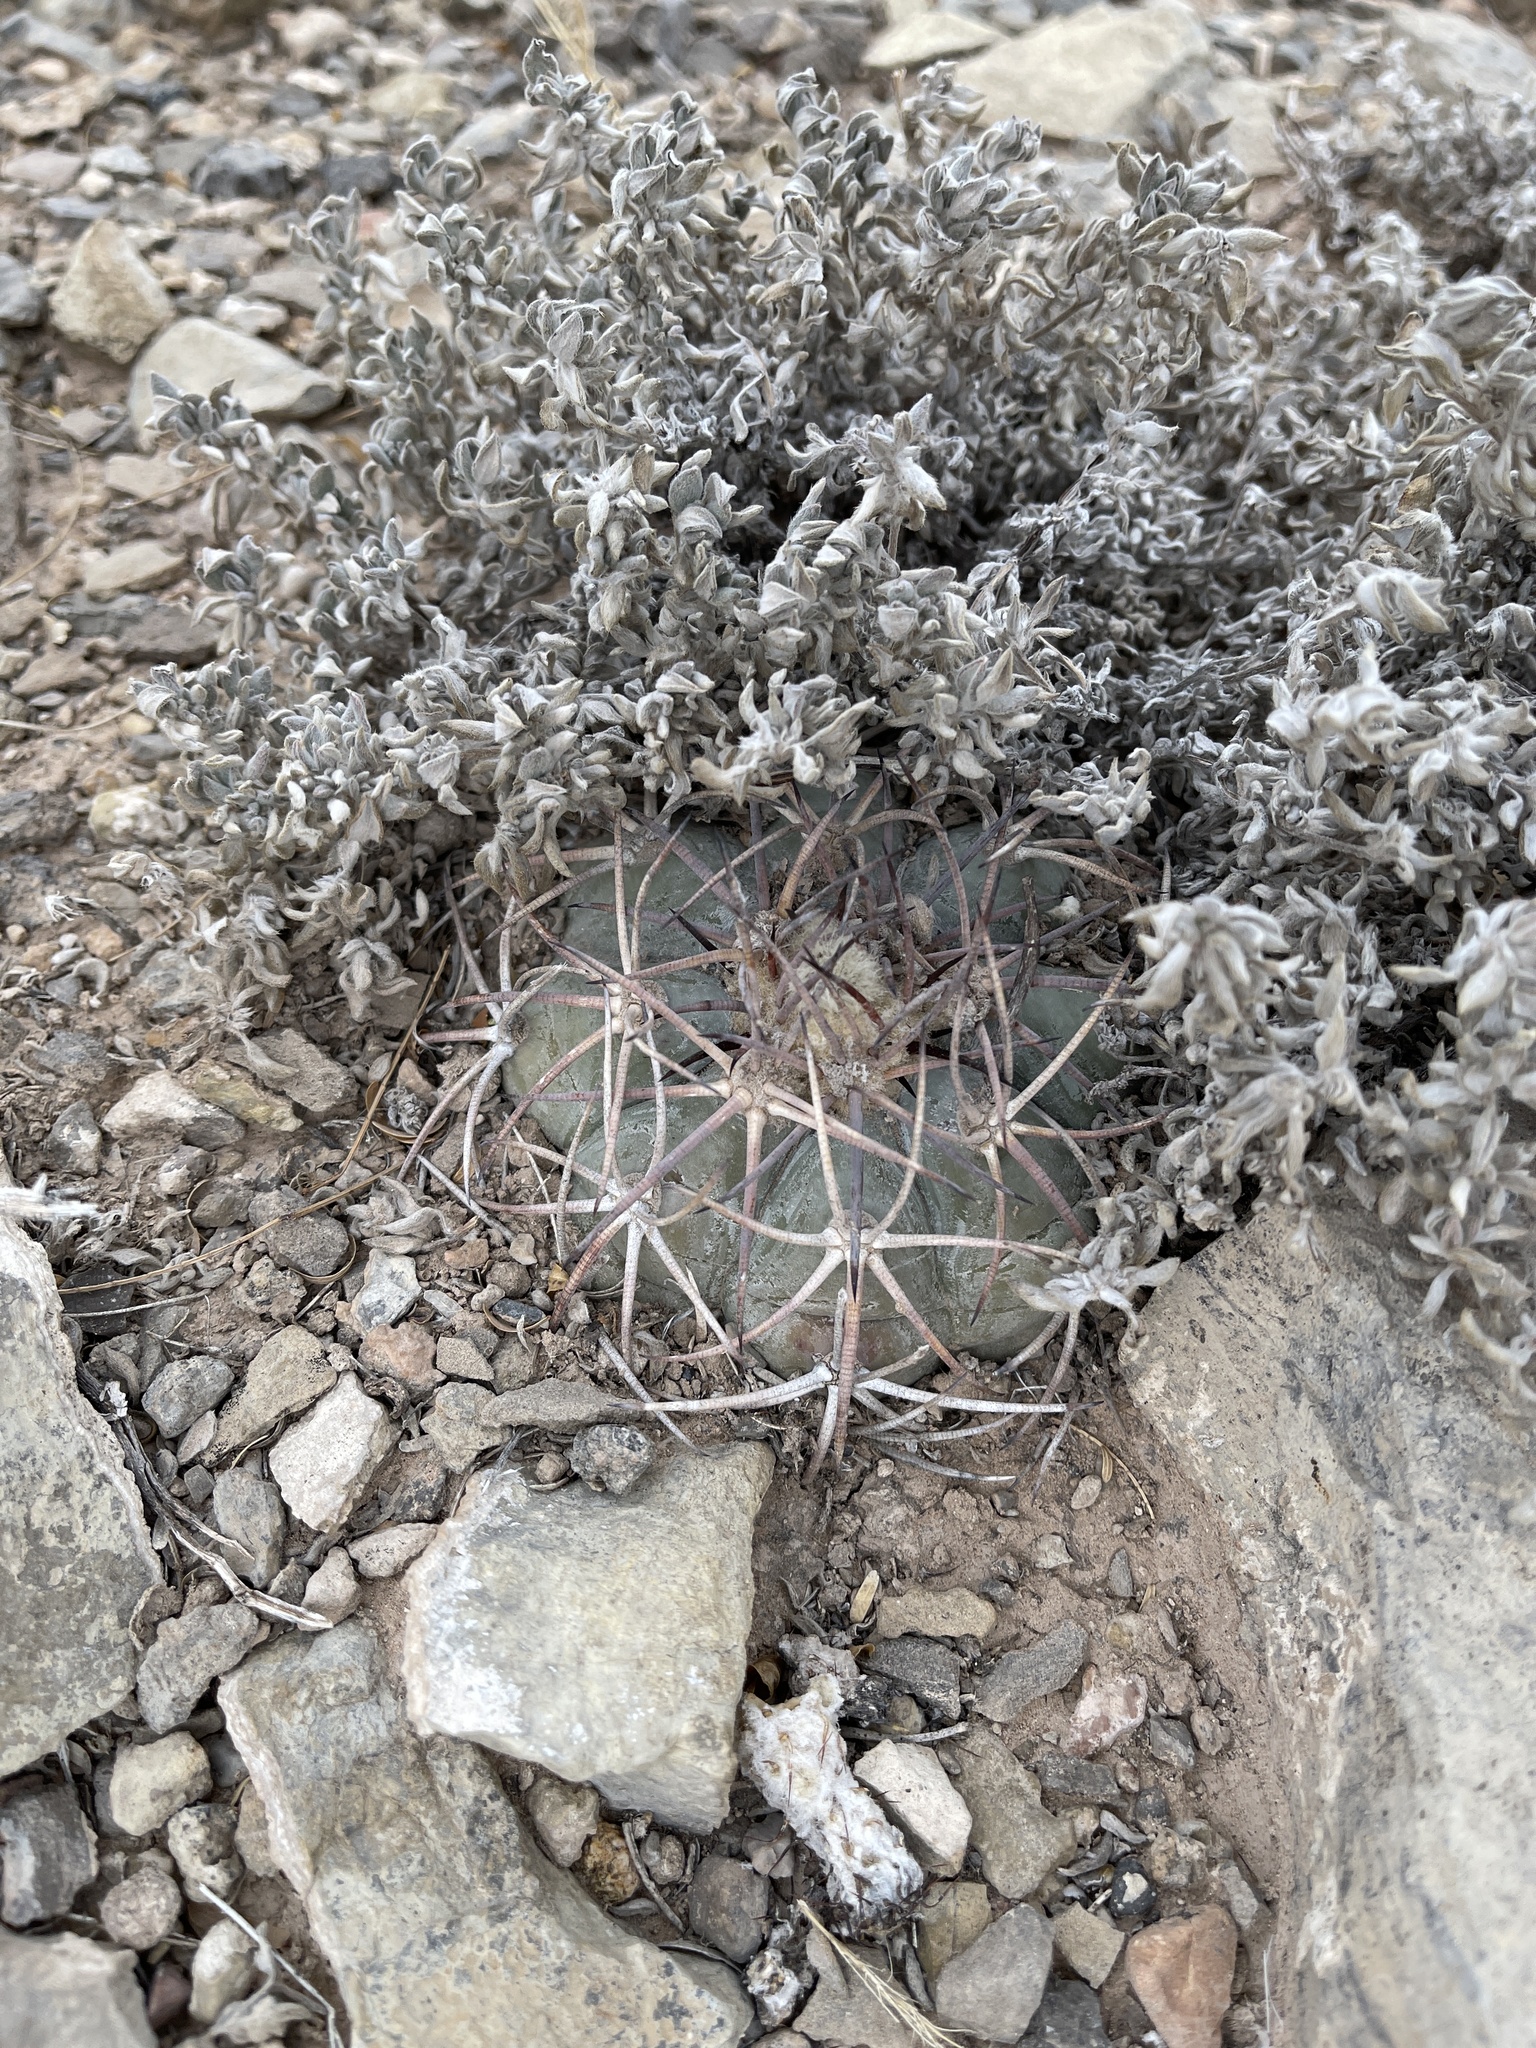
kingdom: Plantae
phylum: Tracheophyta
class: Magnoliopsida
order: Caryophyllales
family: Cactaceae
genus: Echinocactus
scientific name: Echinocactus horizonthalonius
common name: Devilshead
